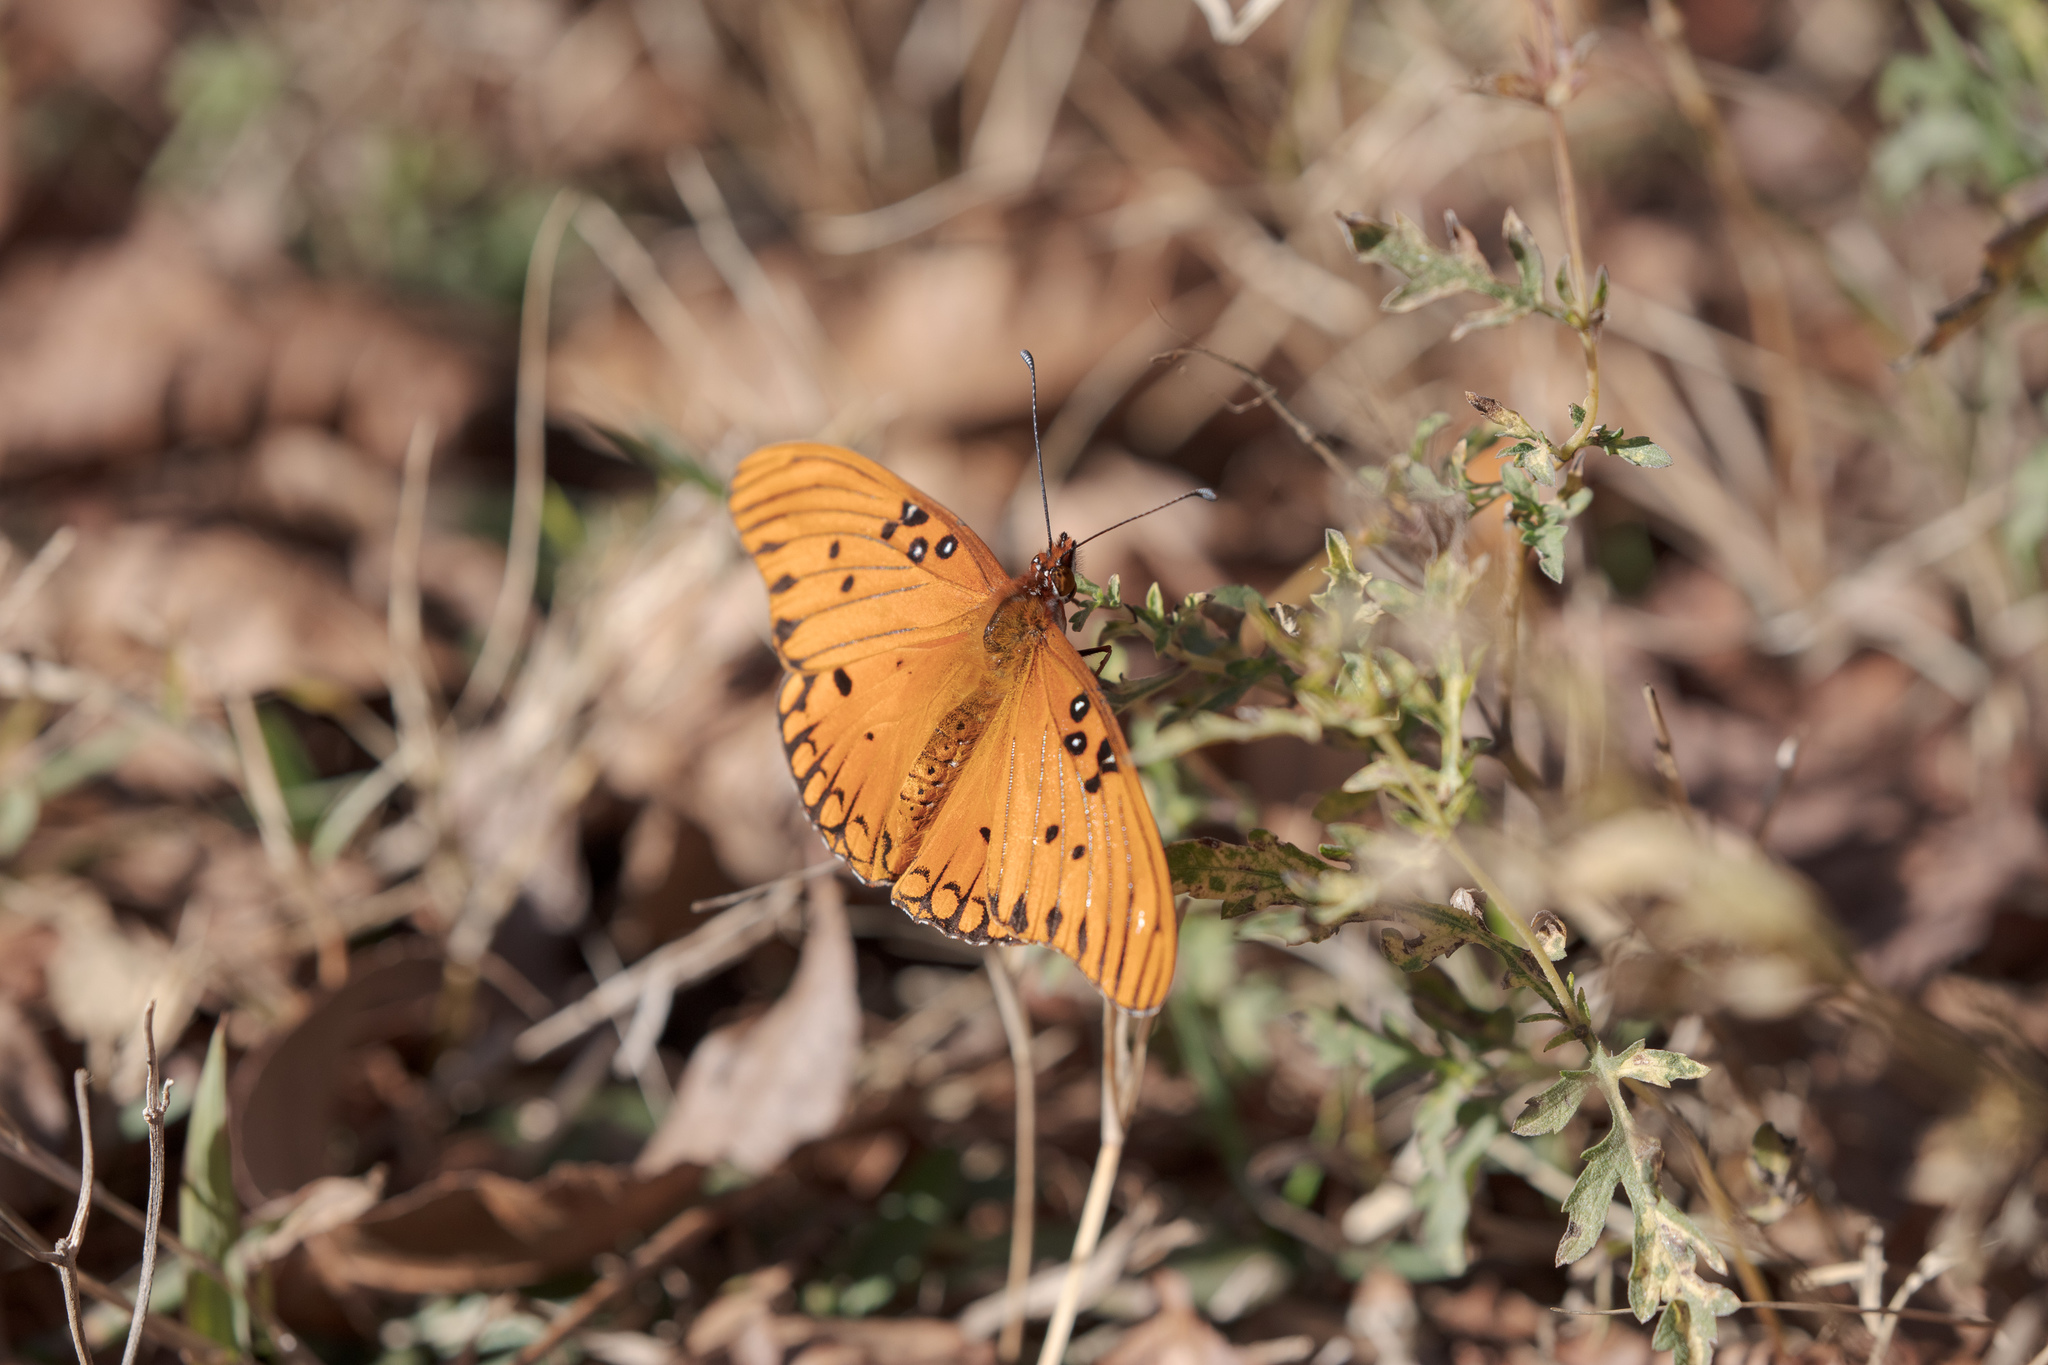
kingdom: Animalia
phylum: Arthropoda
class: Insecta
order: Lepidoptera
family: Nymphalidae
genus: Dione
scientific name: Dione vanillae
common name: Gulf fritillary
